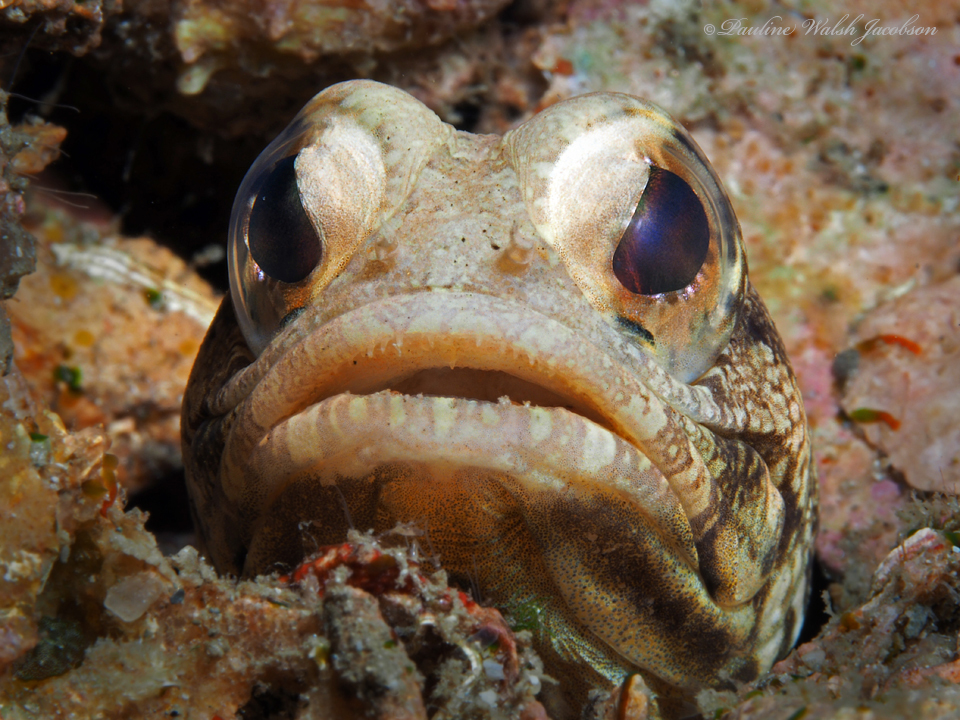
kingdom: Animalia
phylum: Chordata
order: Perciformes
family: Opistognathidae
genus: Opistognathus
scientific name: Opistognathus robinsi
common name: Spotfin jawfish
